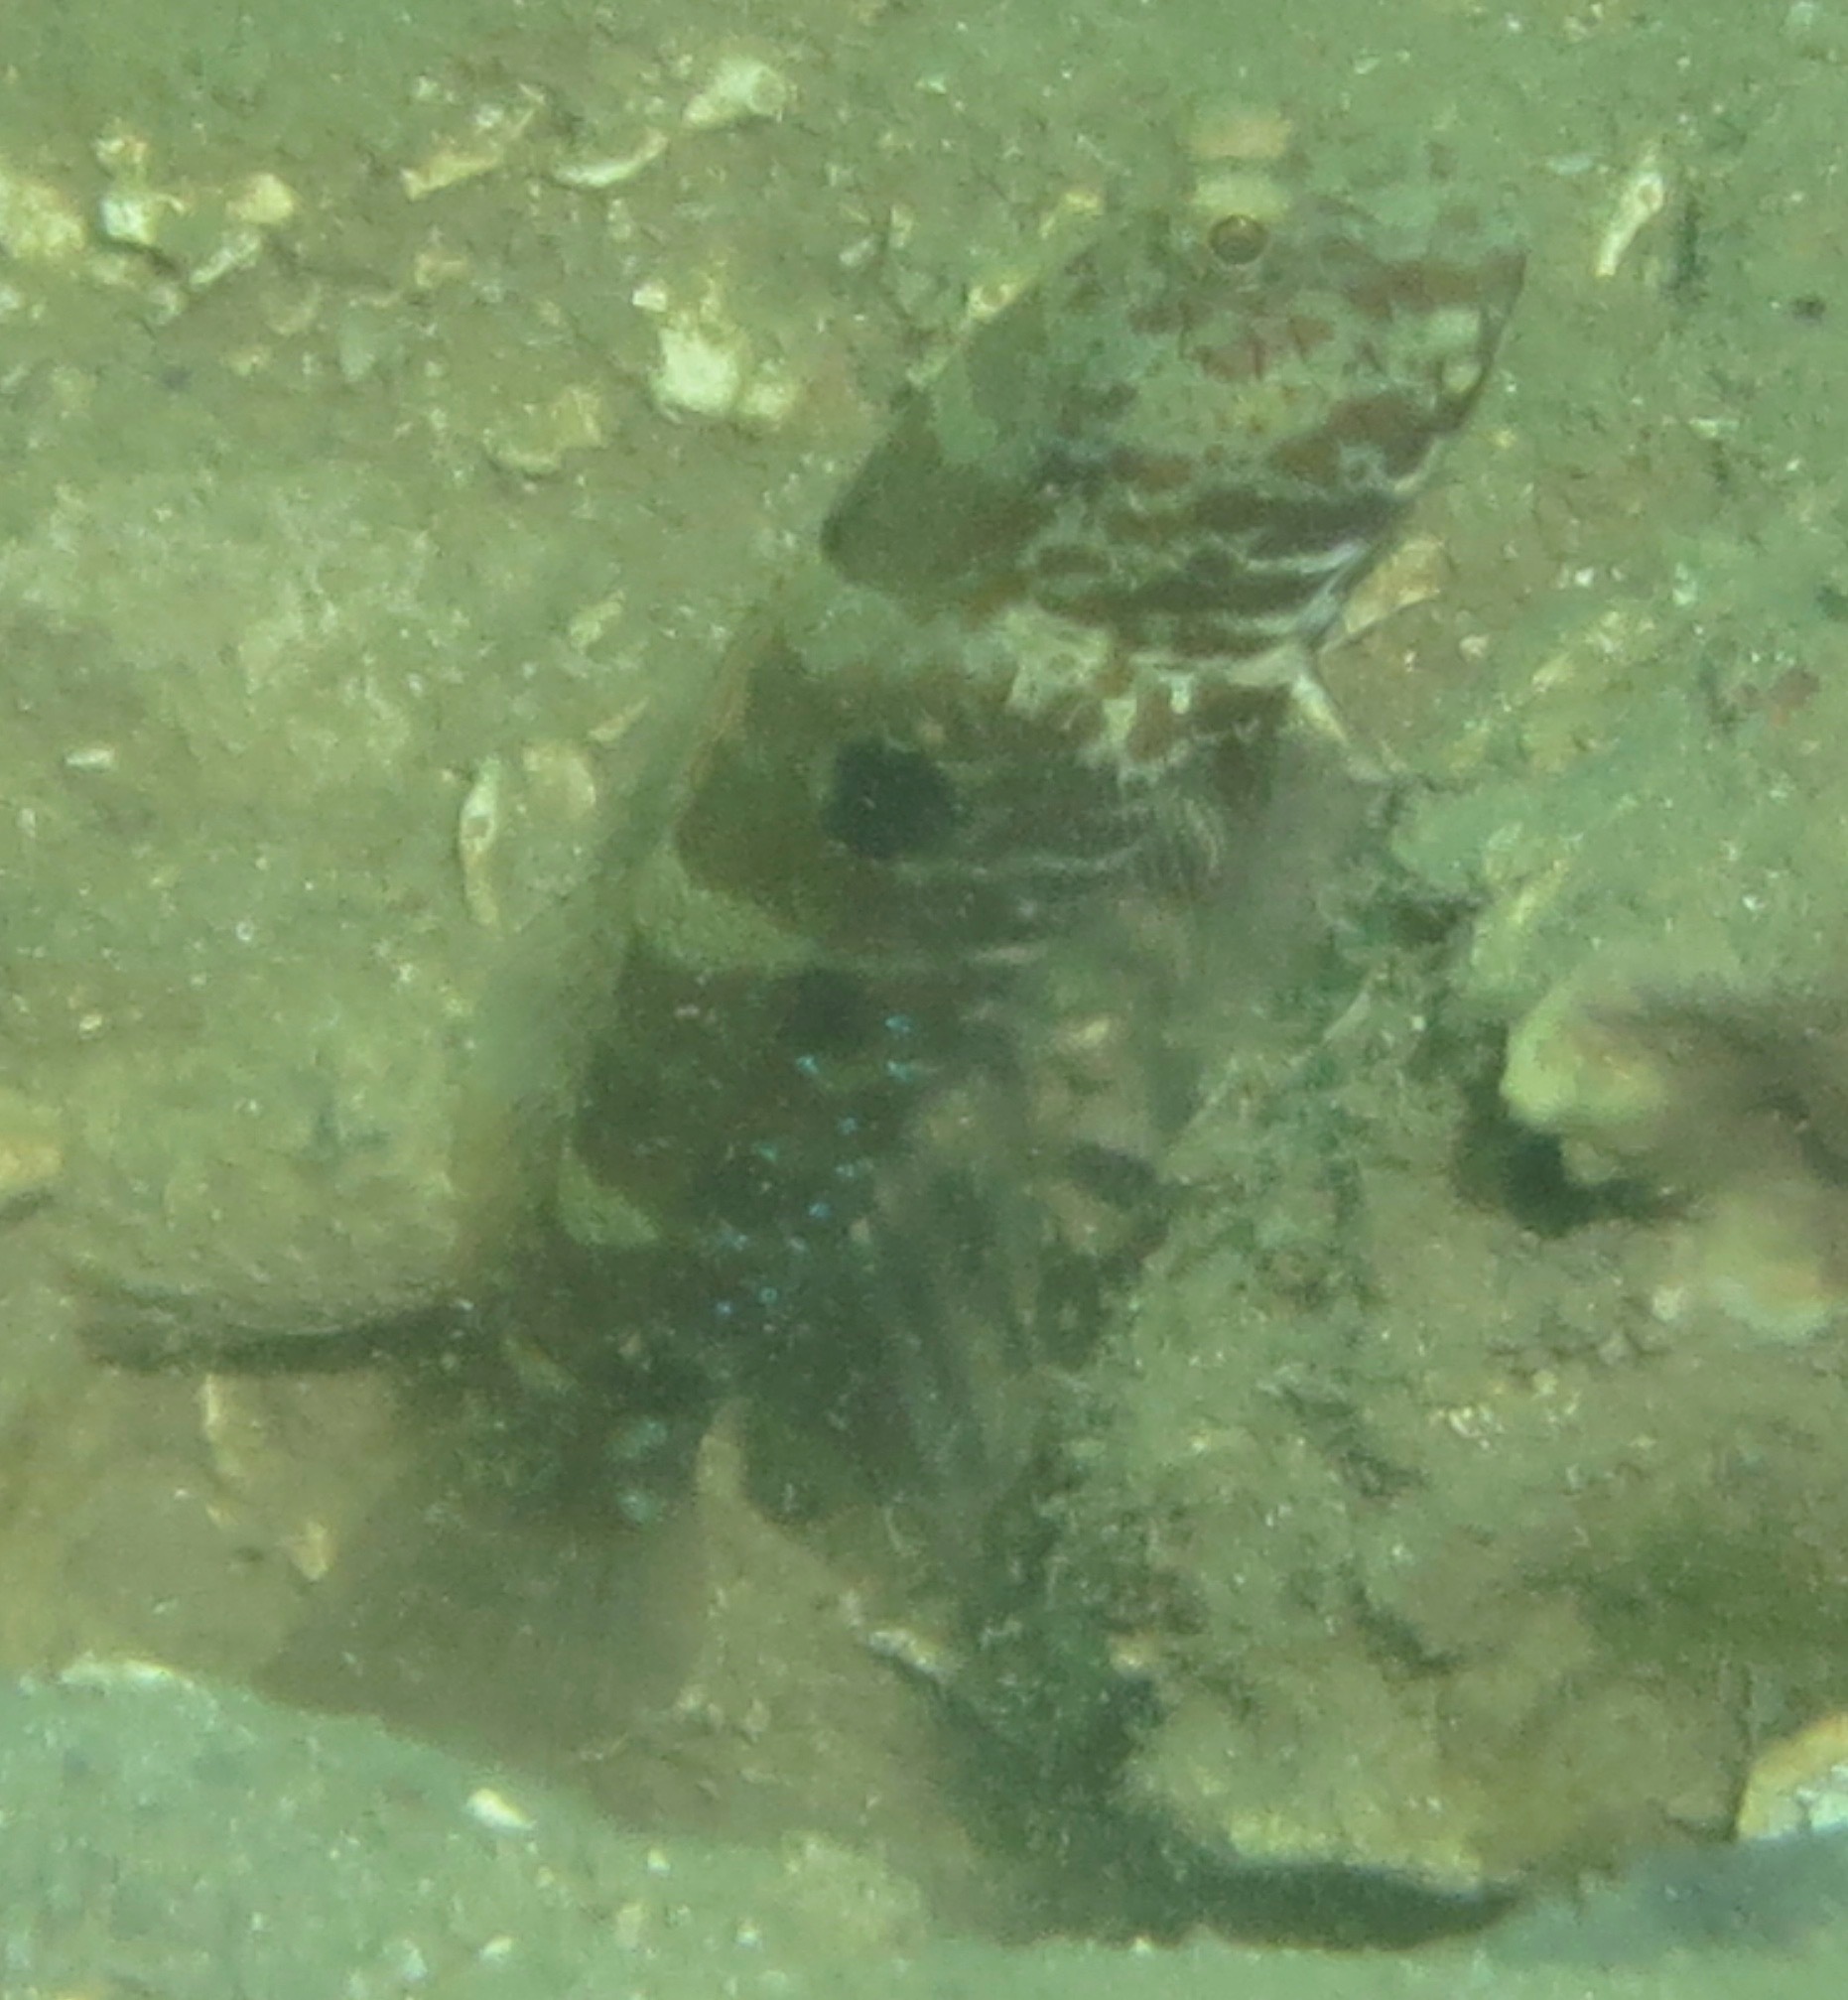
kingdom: Animalia
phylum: Chordata
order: Perciformes
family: Gobiidae
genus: Cryptocentrus
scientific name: Cryptocentrus strigilliceps
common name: Side-spot shrimp-goby
